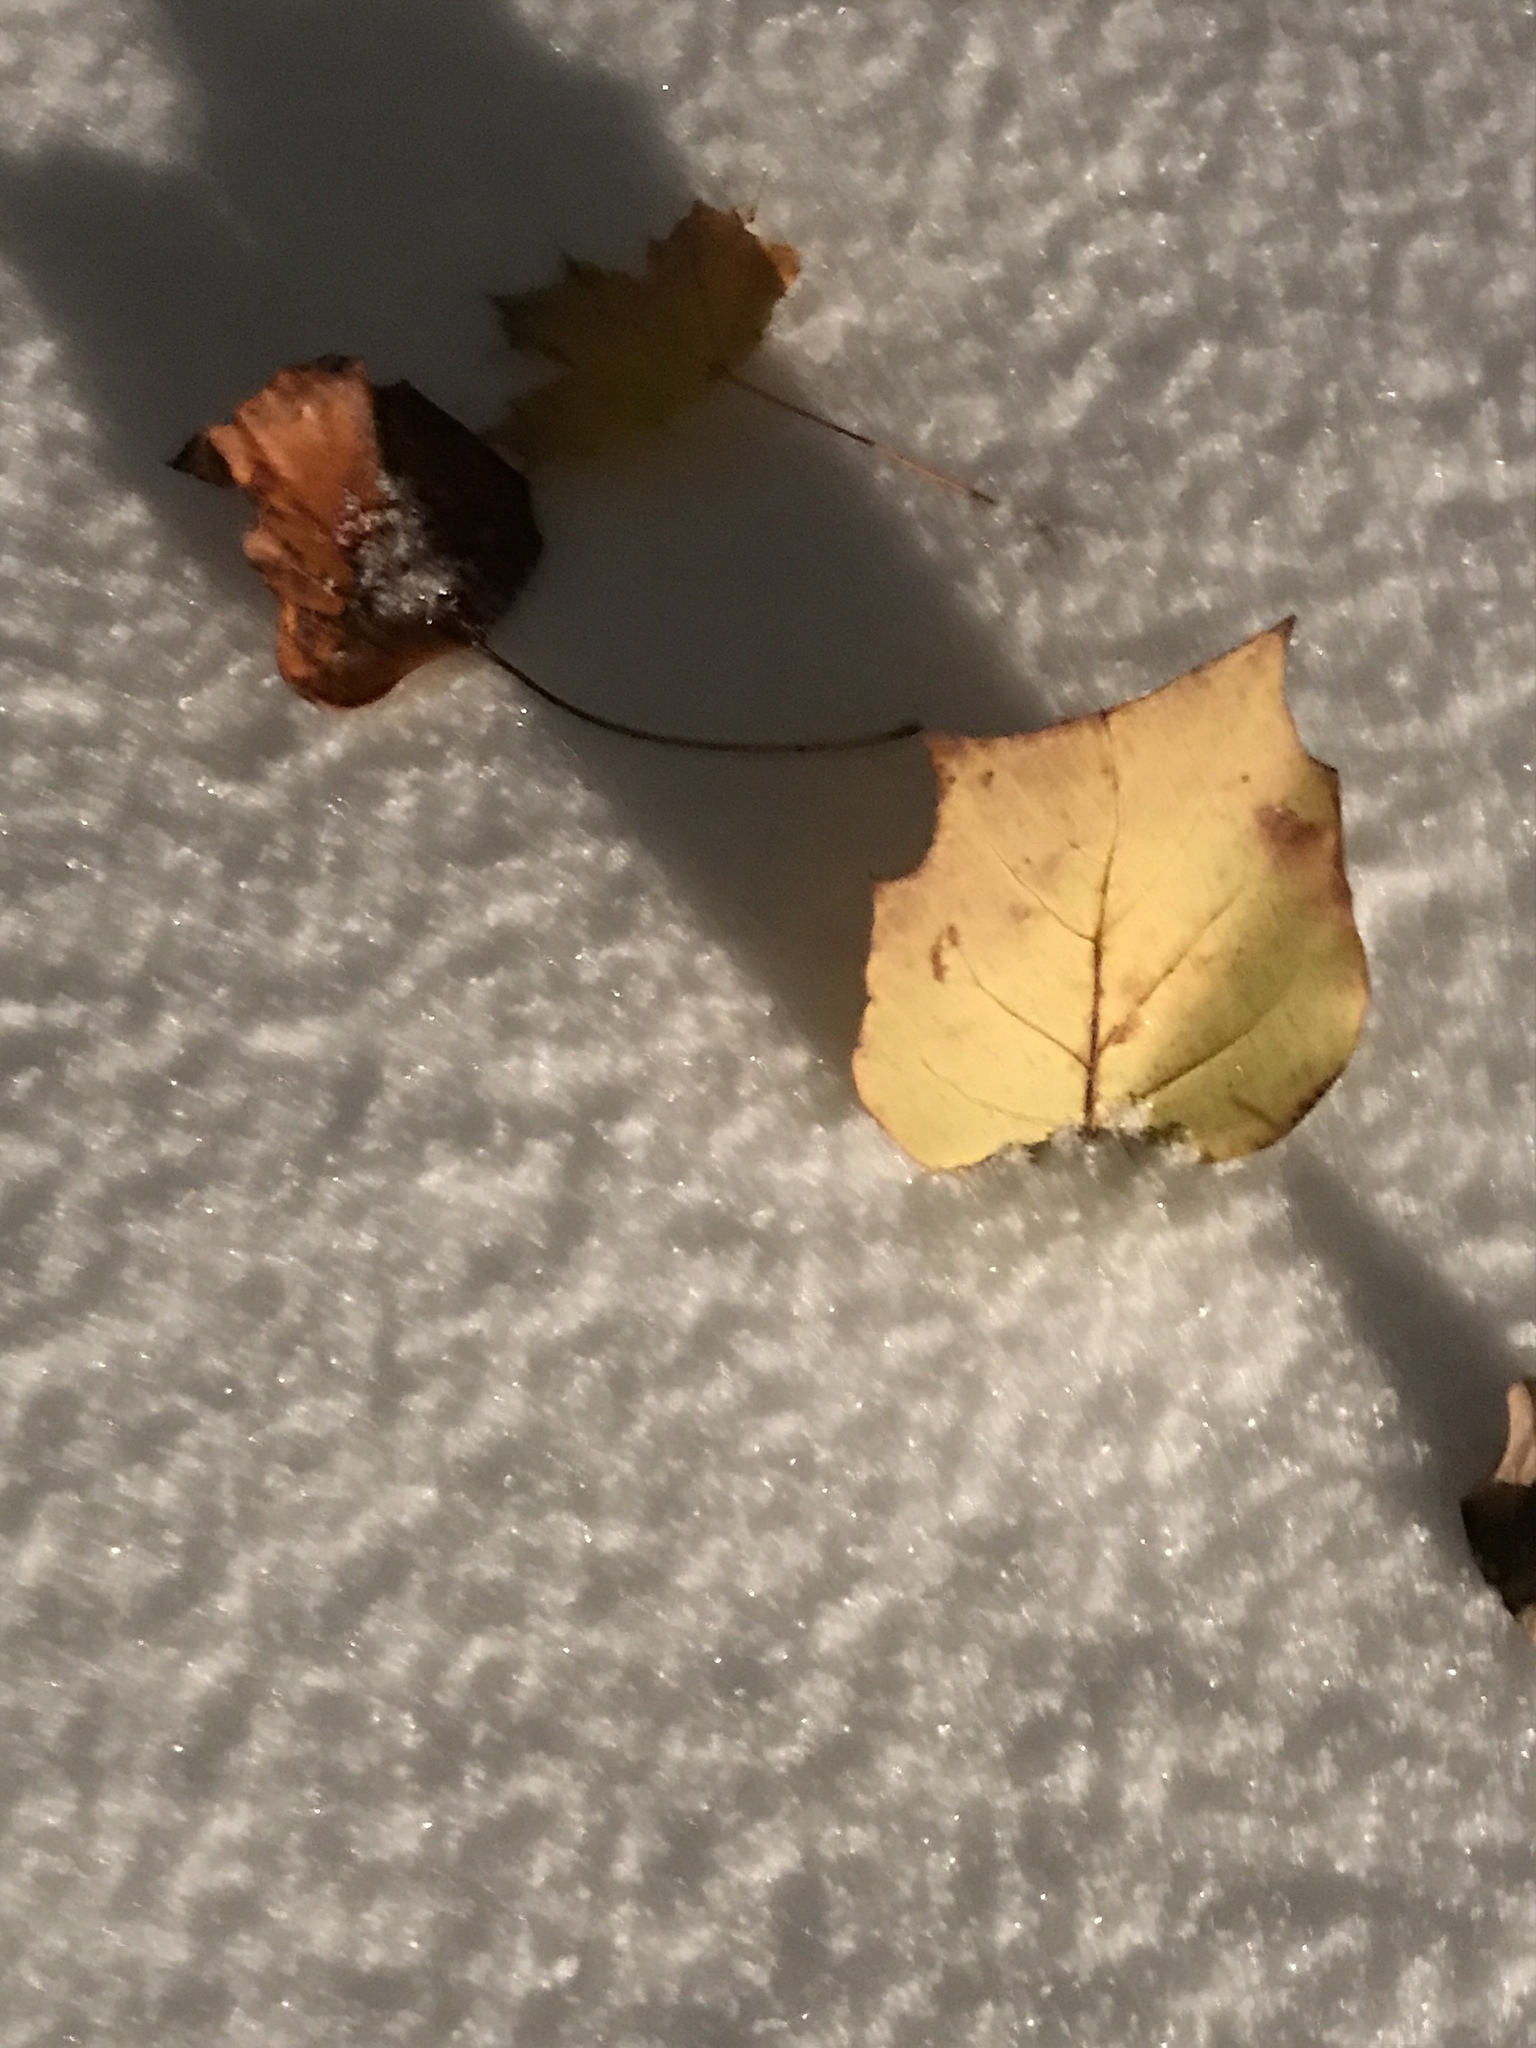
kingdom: Plantae
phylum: Tracheophyta
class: Magnoliopsida
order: Magnoliales
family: Magnoliaceae
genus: Liriodendron
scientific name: Liriodendron tulipifera
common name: Tulip tree
